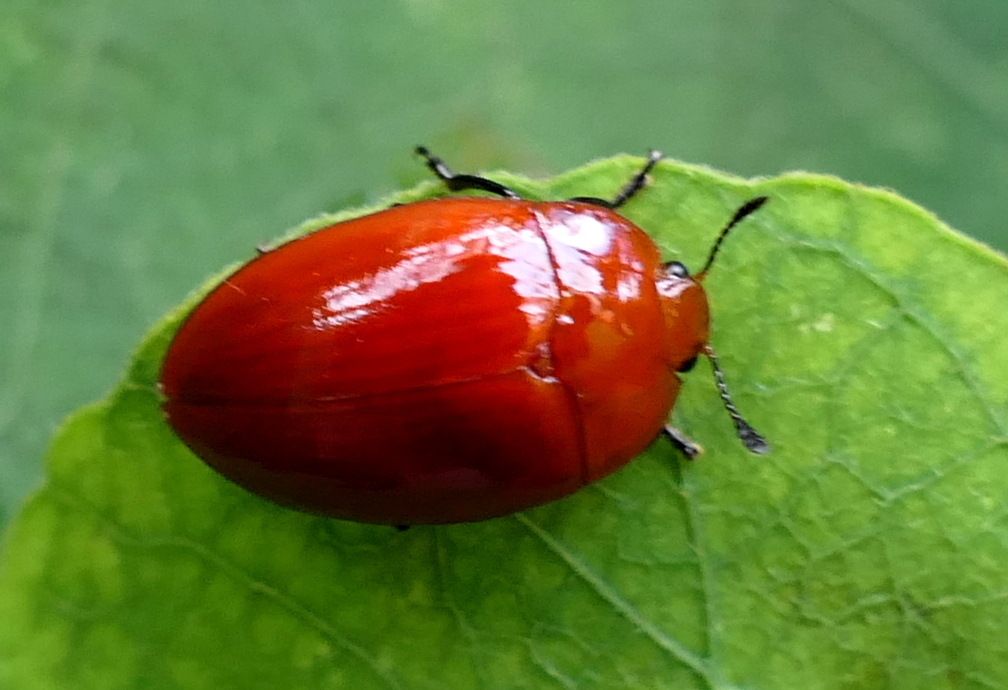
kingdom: Animalia
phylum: Arthropoda
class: Insecta
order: Coleoptera
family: Erotylidae
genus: Iphiclus
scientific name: Iphiclus
